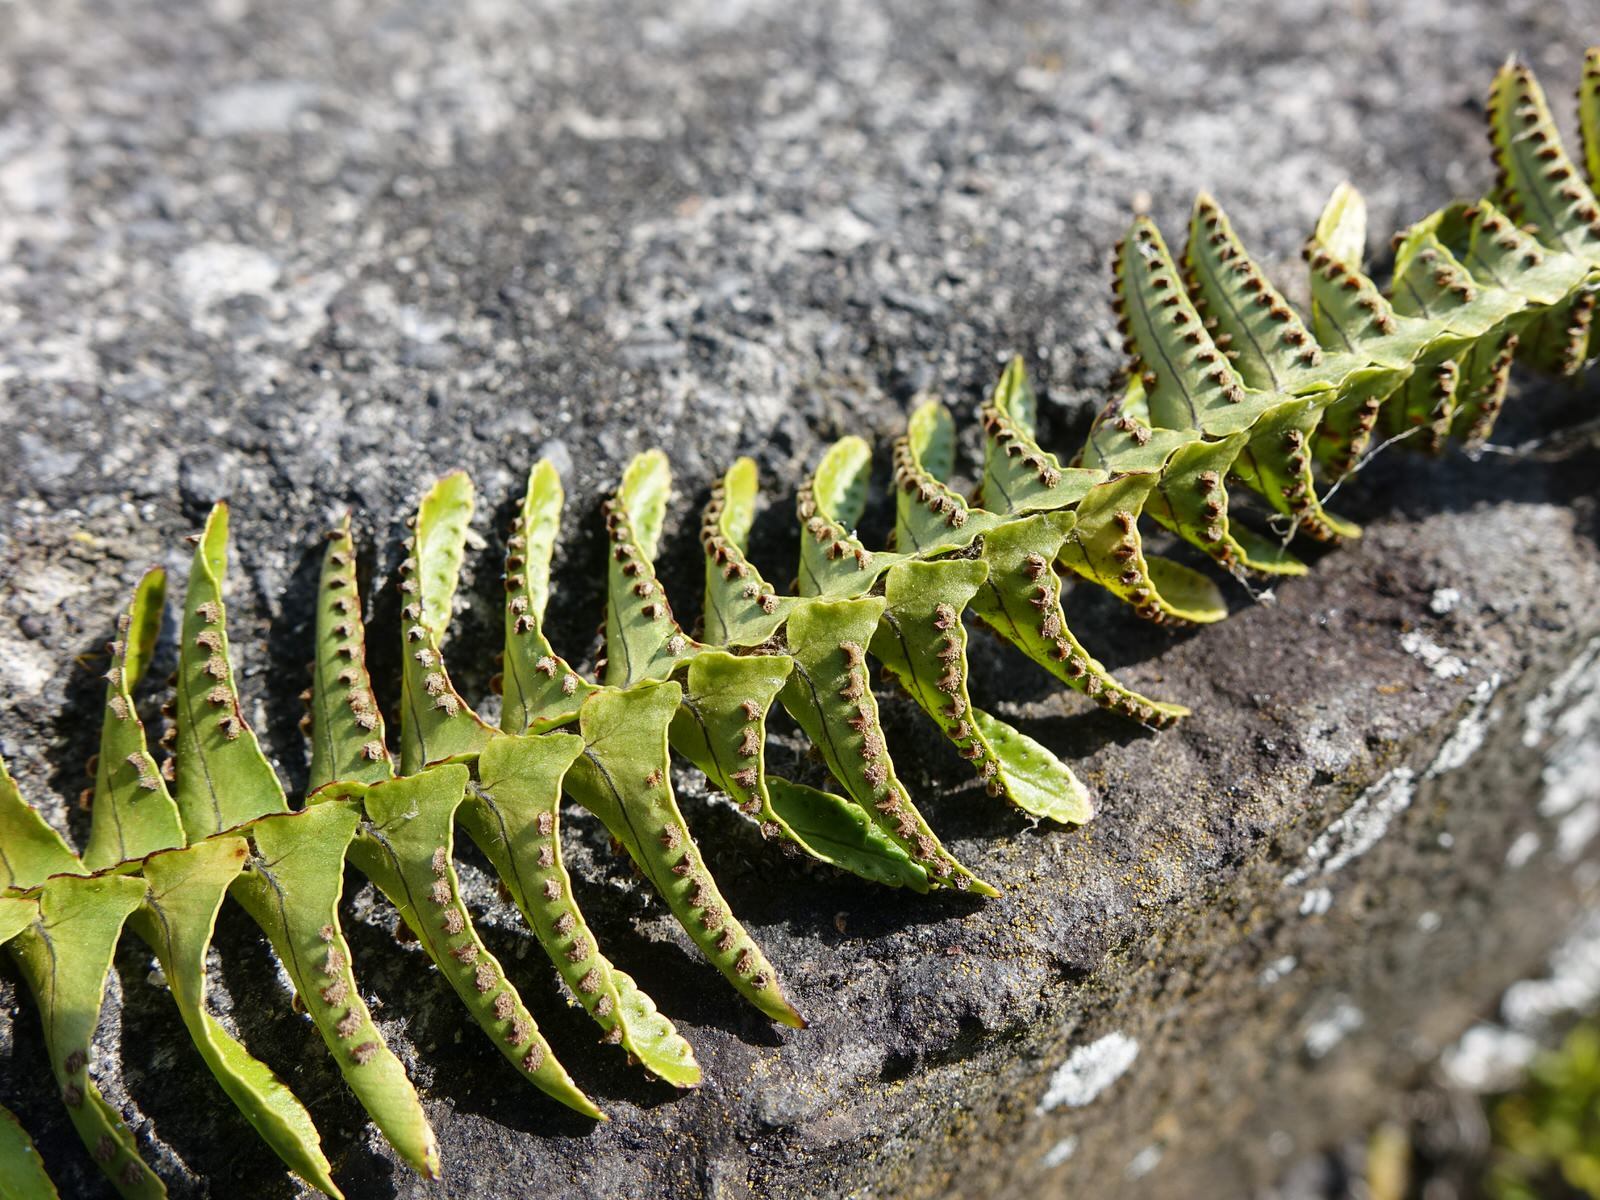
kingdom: Plantae
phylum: Tracheophyta
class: Polypodiopsida
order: Polypodiales
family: Nephrolepidaceae
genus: Nephrolepis
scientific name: Nephrolepis cordifolia
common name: Narrow swordfern
